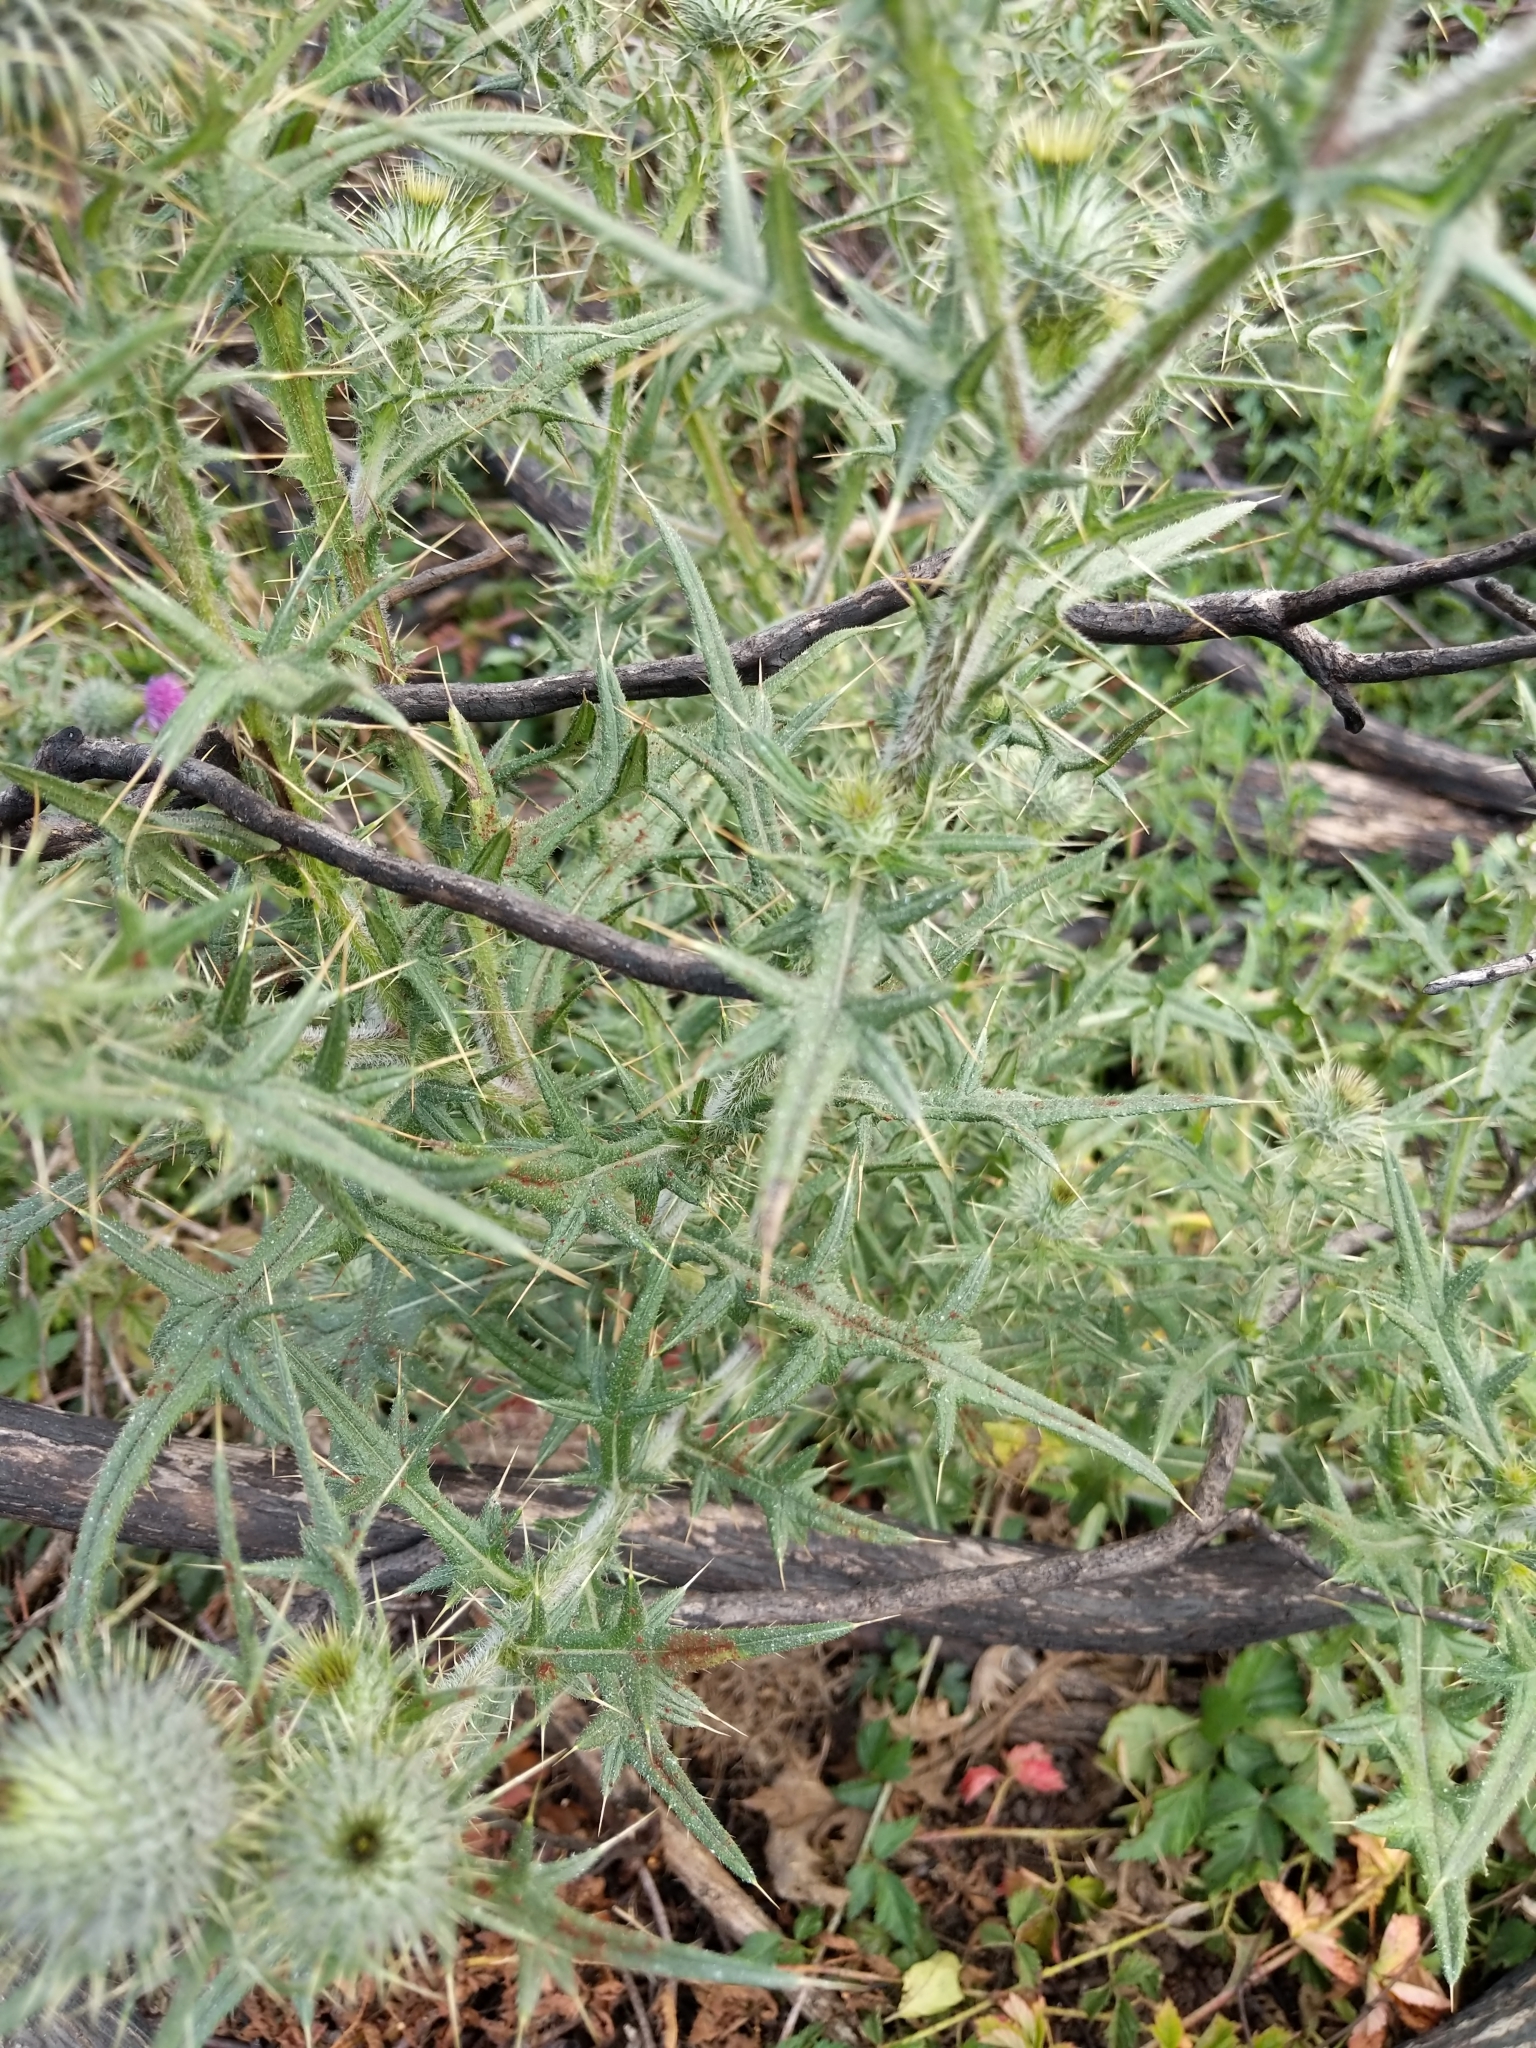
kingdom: Plantae
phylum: Tracheophyta
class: Magnoliopsida
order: Asterales
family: Asteraceae
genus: Cirsium
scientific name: Cirsium vulgare
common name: Bull thistle
